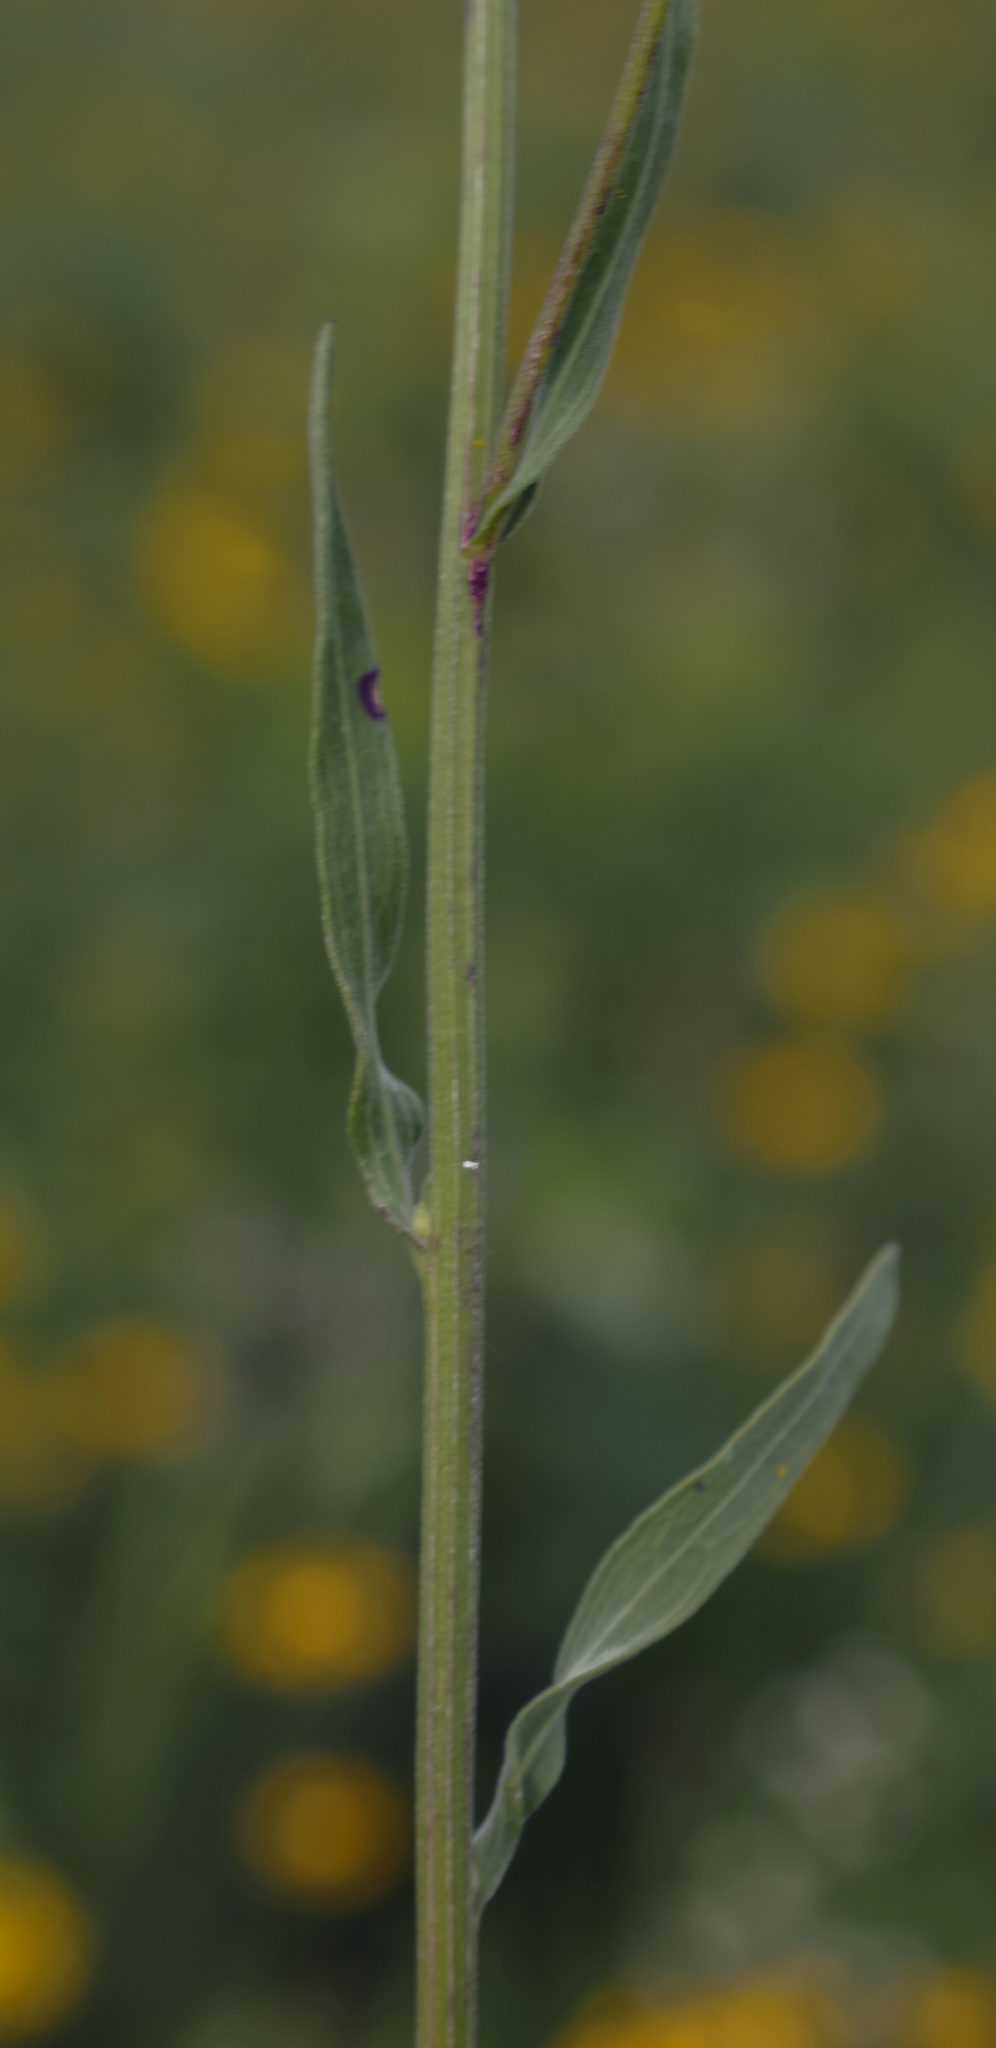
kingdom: Plantae
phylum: Tracheophyta
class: Magnoliopsida
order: Asterales
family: Asteraceae
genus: Erigeron
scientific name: Erigeron strigosus
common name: Common eastern fleabane
